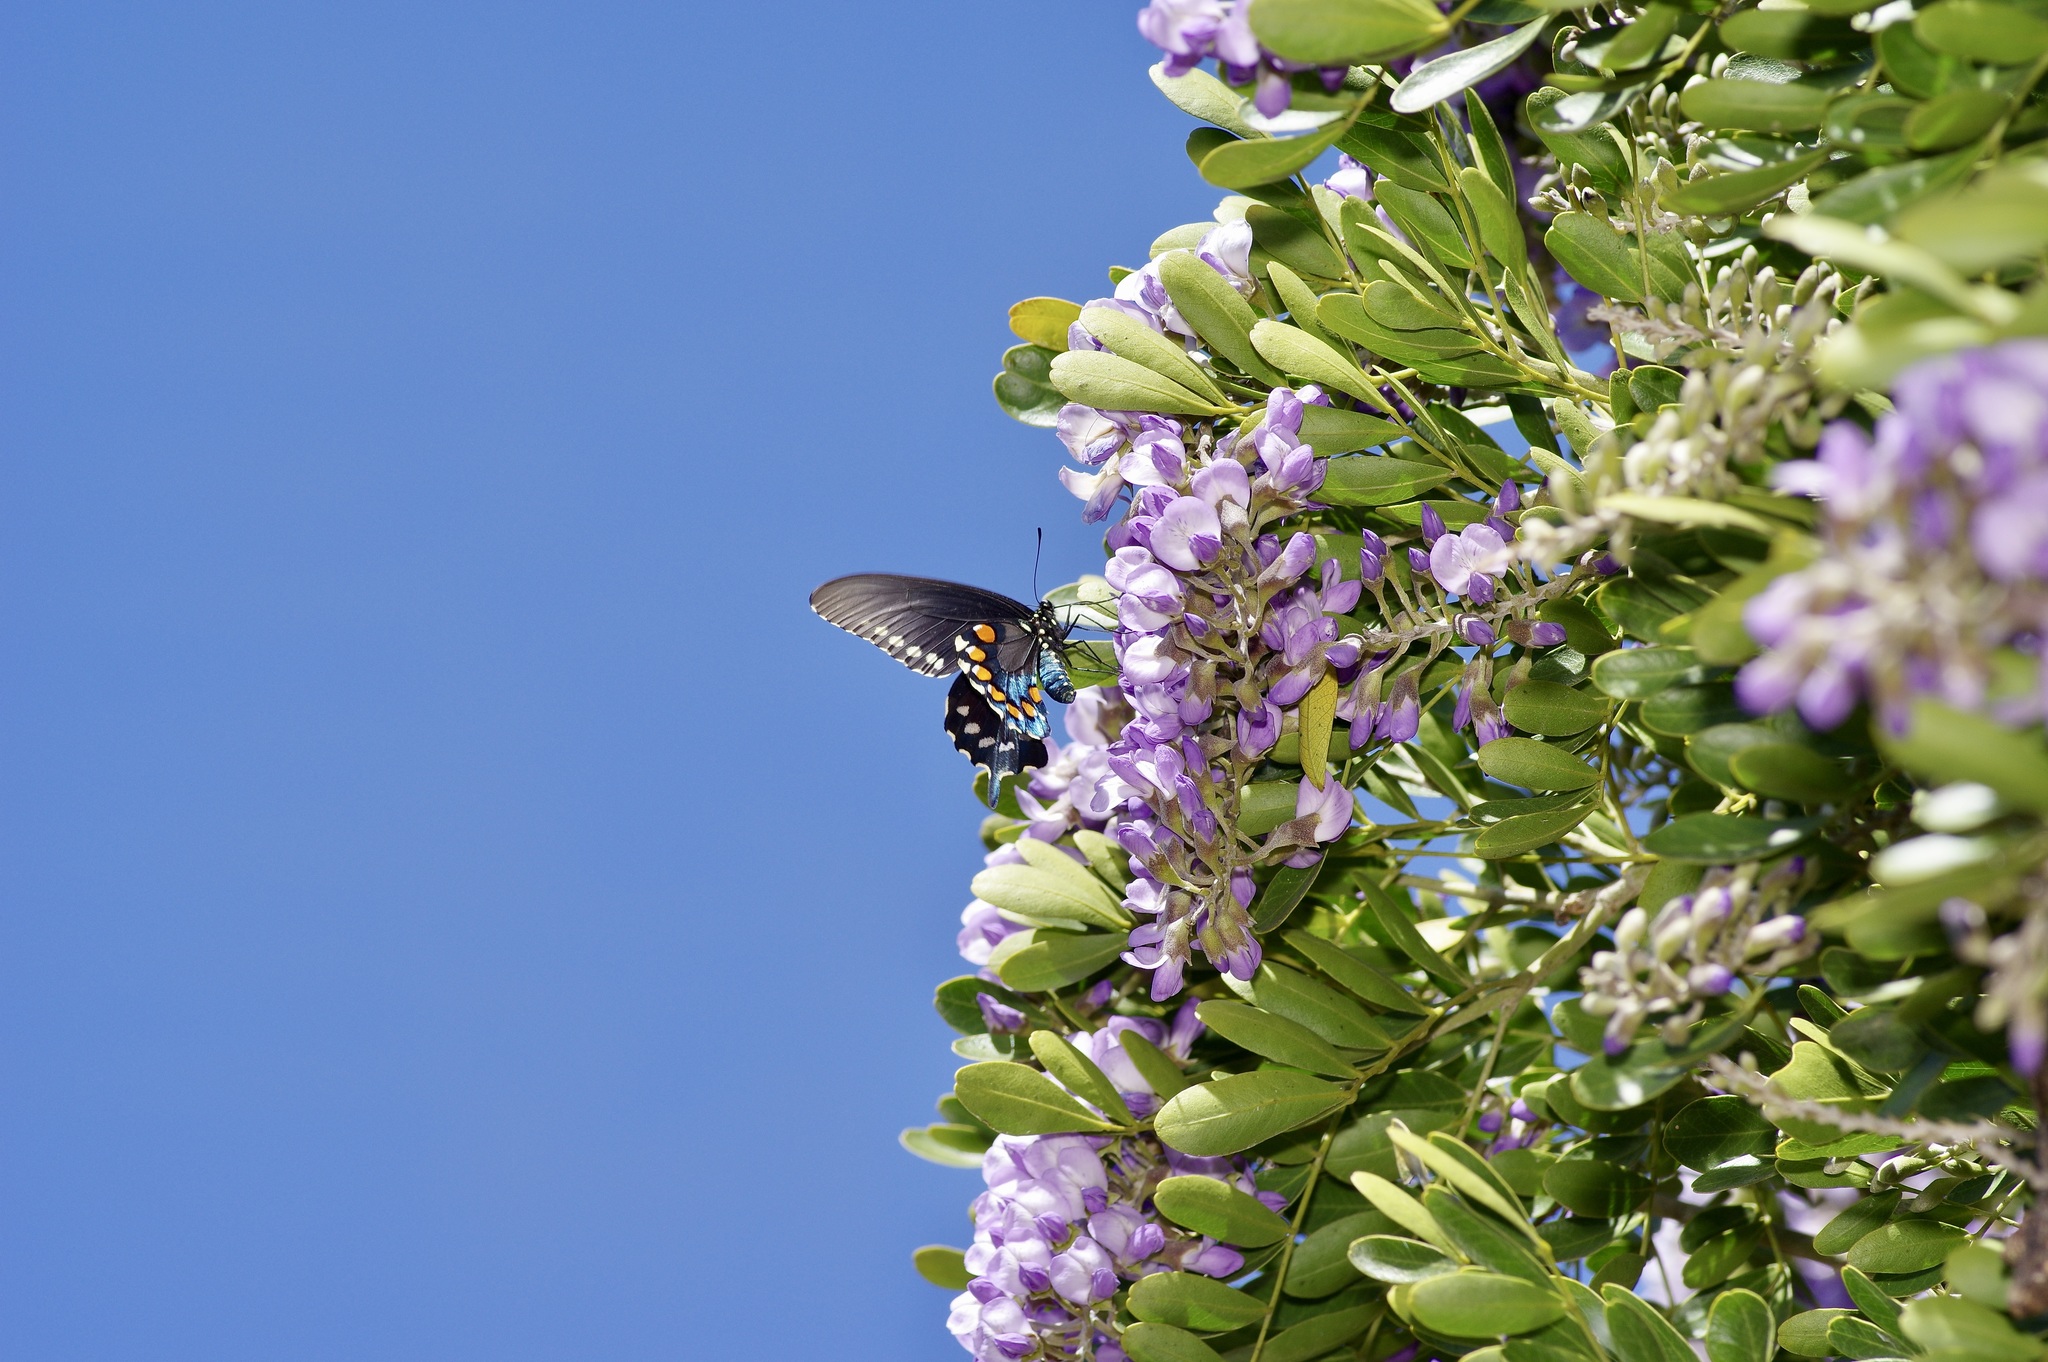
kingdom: Animalia
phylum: Arthropoda
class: Insecta
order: Lepidoptera
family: Papilionidae
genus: Battus
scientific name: Battus philenor
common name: Pipevine swallowtail
